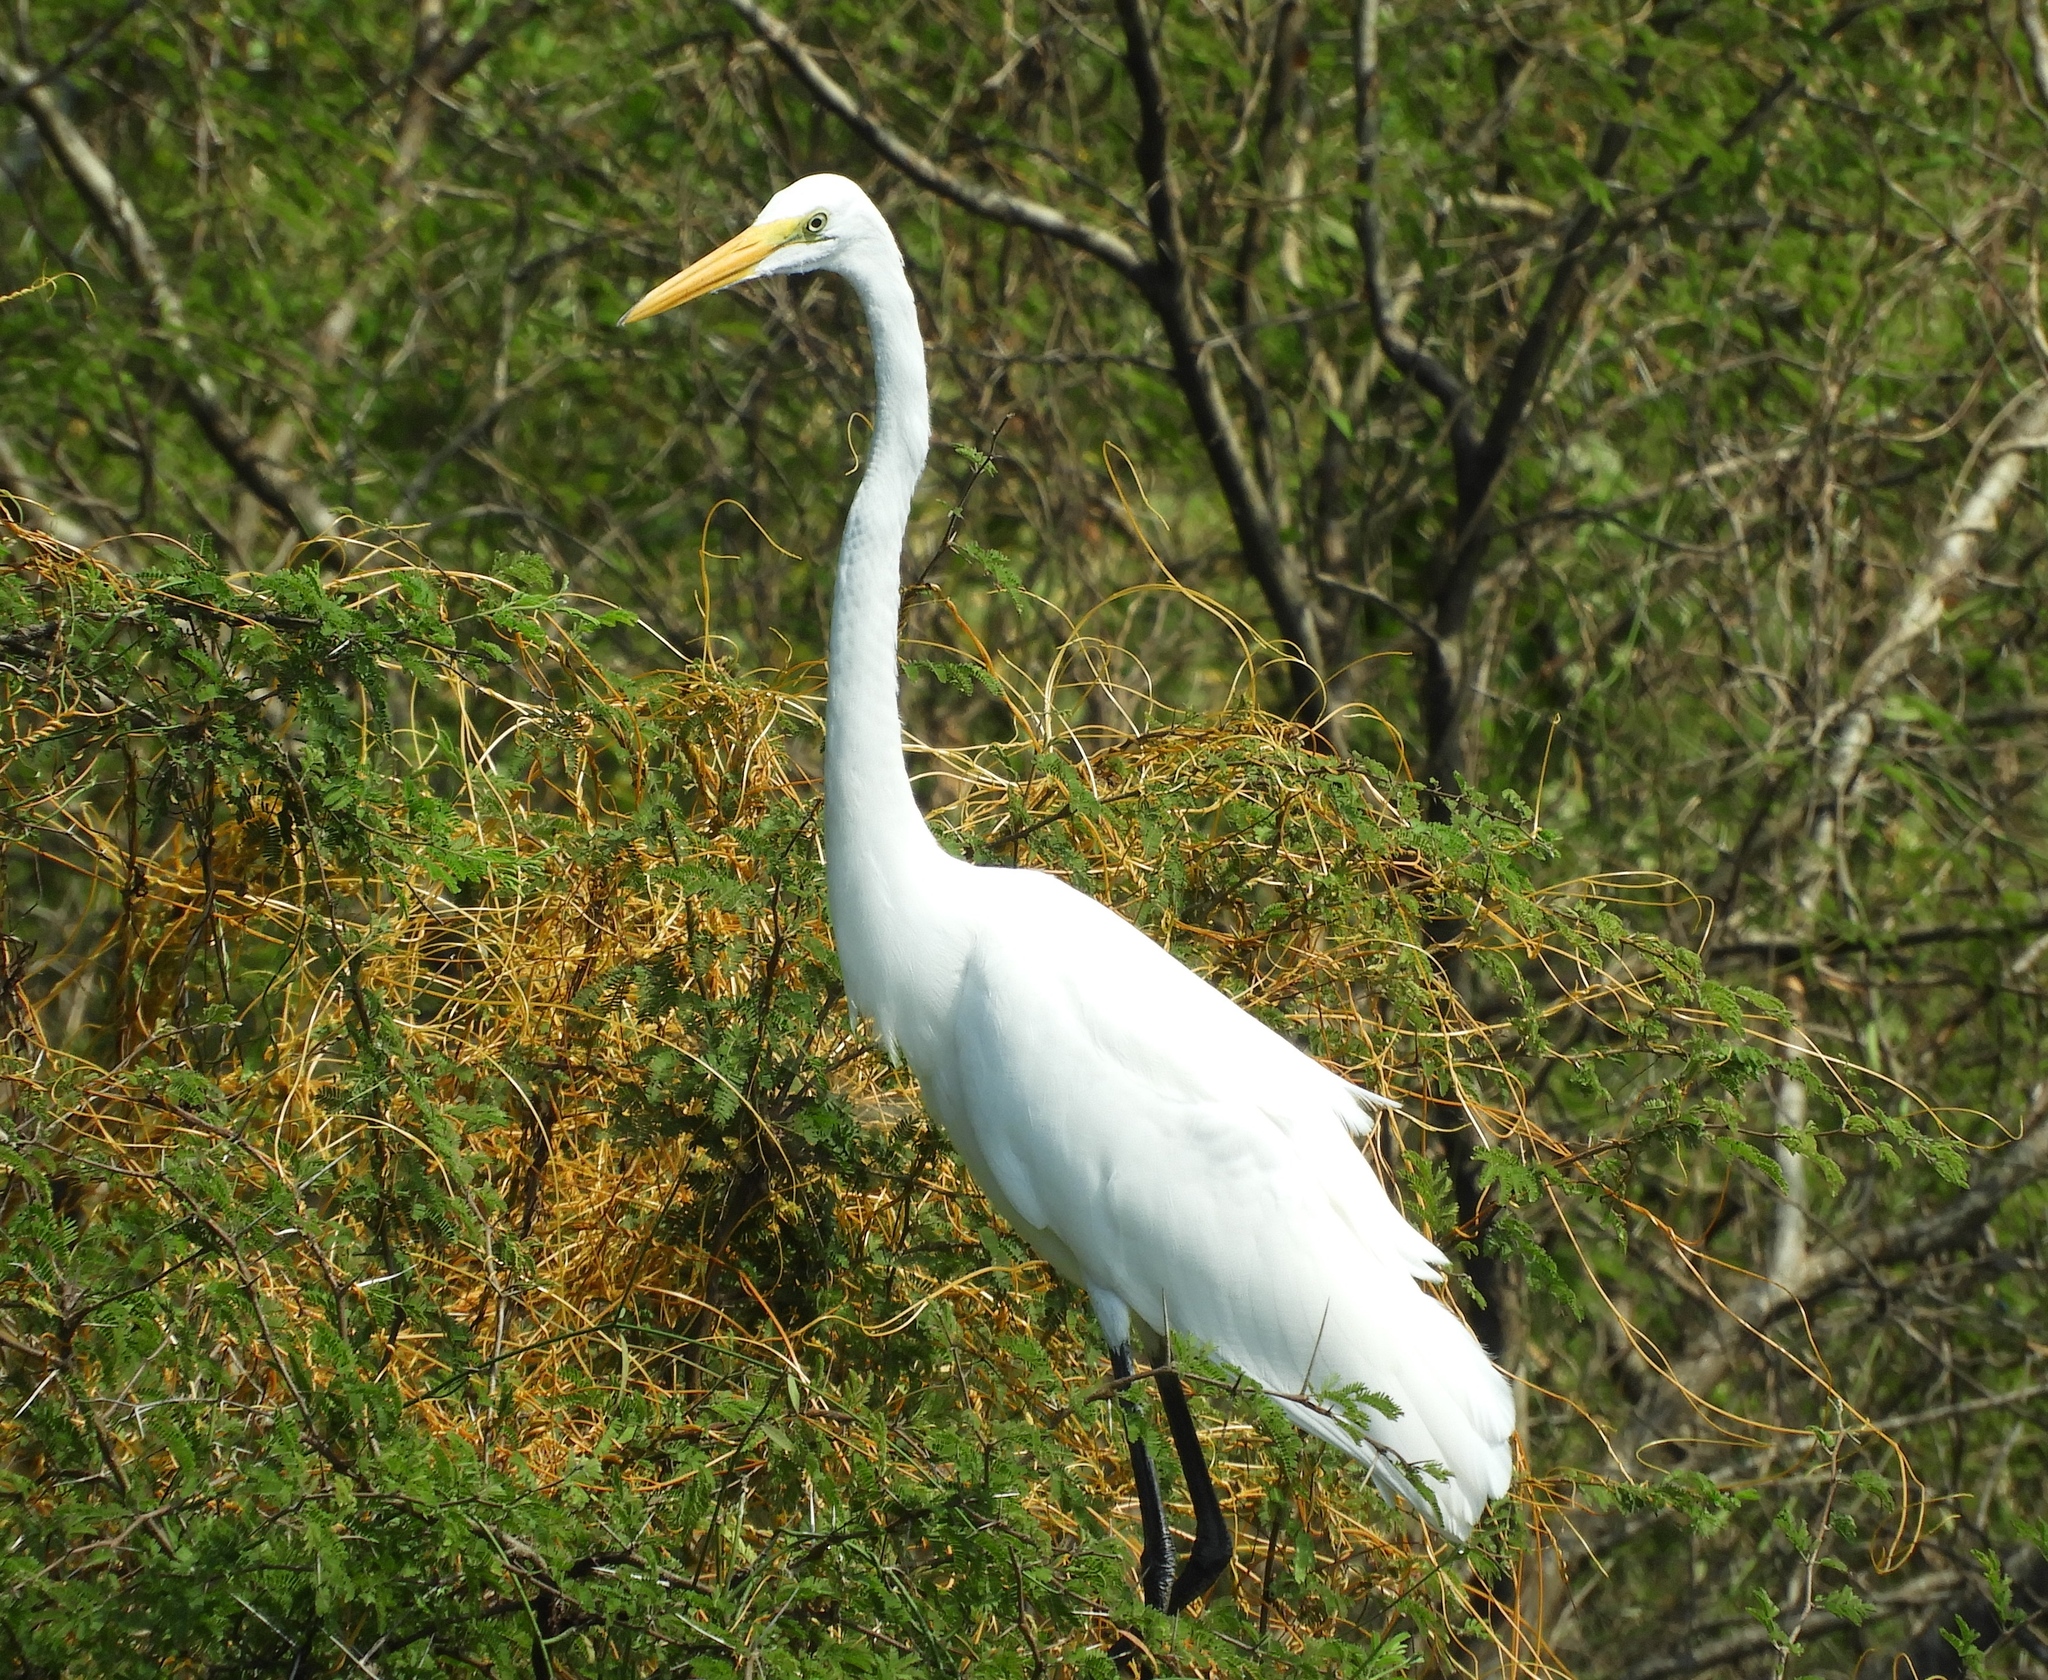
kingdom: Animalia
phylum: Chordata
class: Aves
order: Pelecaniformes
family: Ardeidae
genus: Ardea
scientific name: Ardea alba
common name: Great egret
